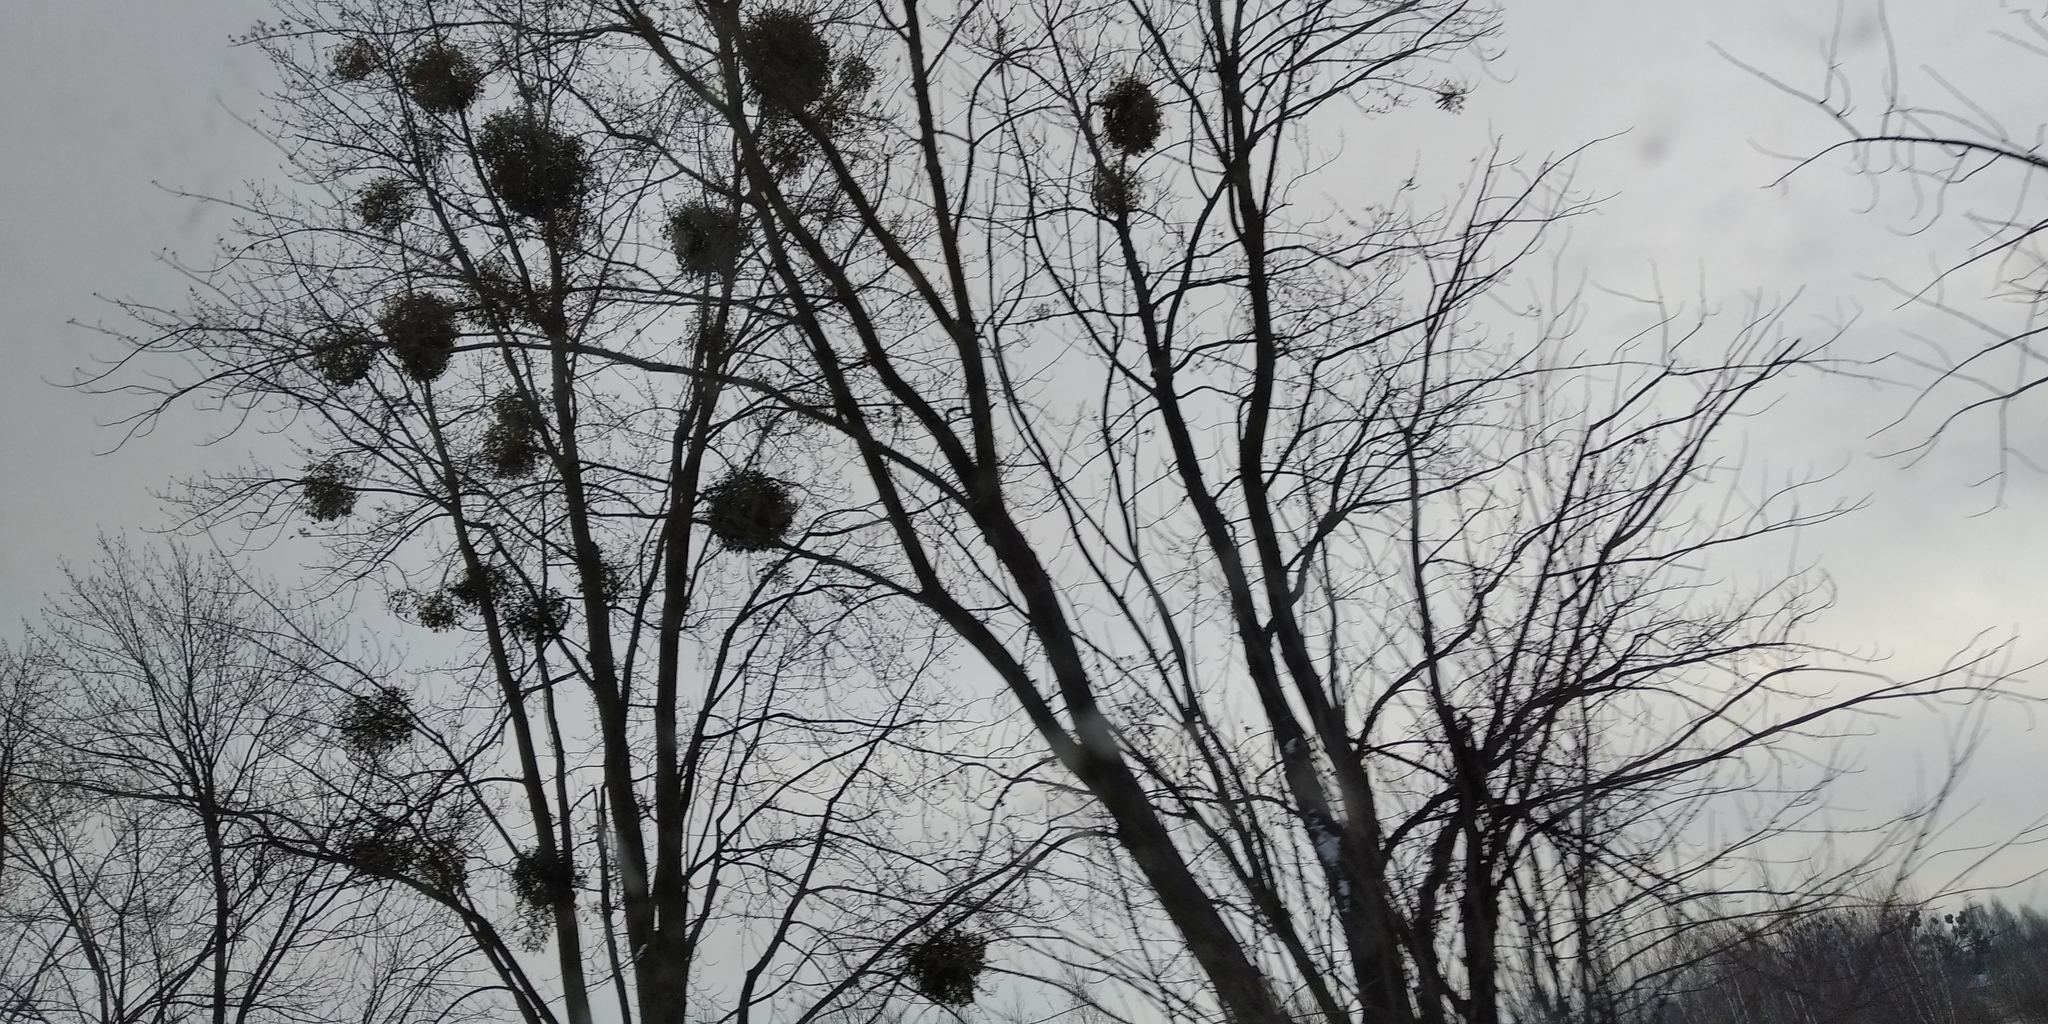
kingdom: Plantae
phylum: Tracheophyta
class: Magnoliopsida
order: Santalales
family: Viscaceae
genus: Viscum
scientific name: Viscum album
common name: Mistletoe
